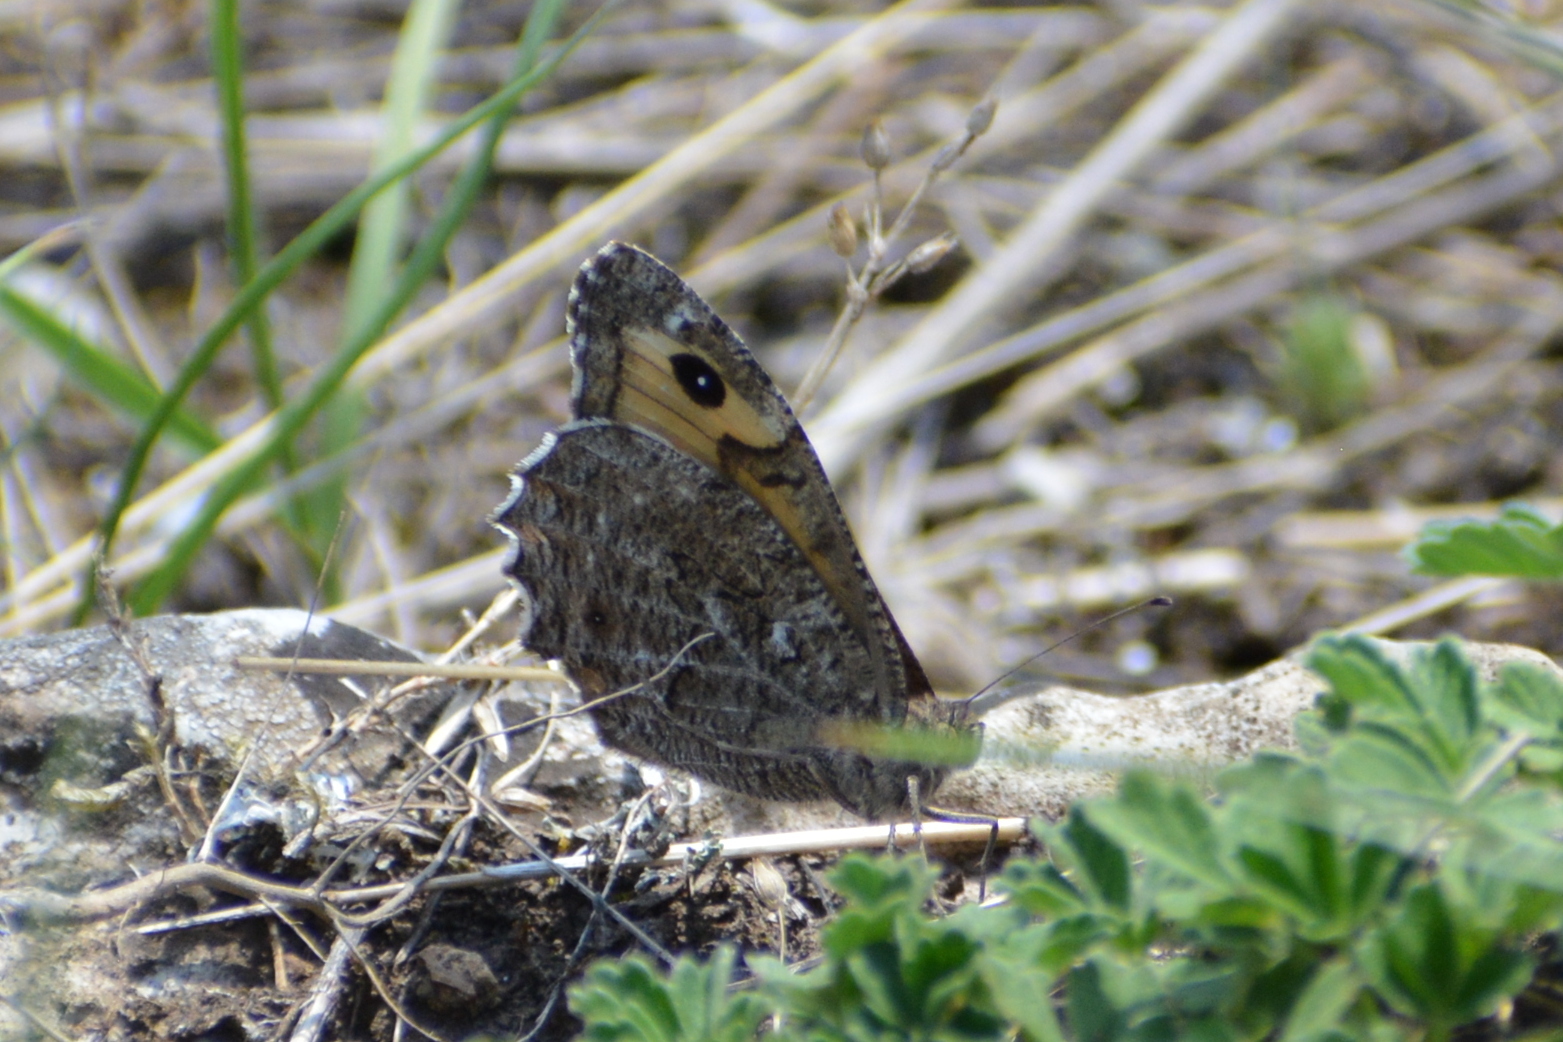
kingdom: Animalia
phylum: Arthropoda
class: Insecta
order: Lepidoptera
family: Nymphalidae
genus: Hipparchia
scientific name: Hipparchia semele
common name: Grayling
